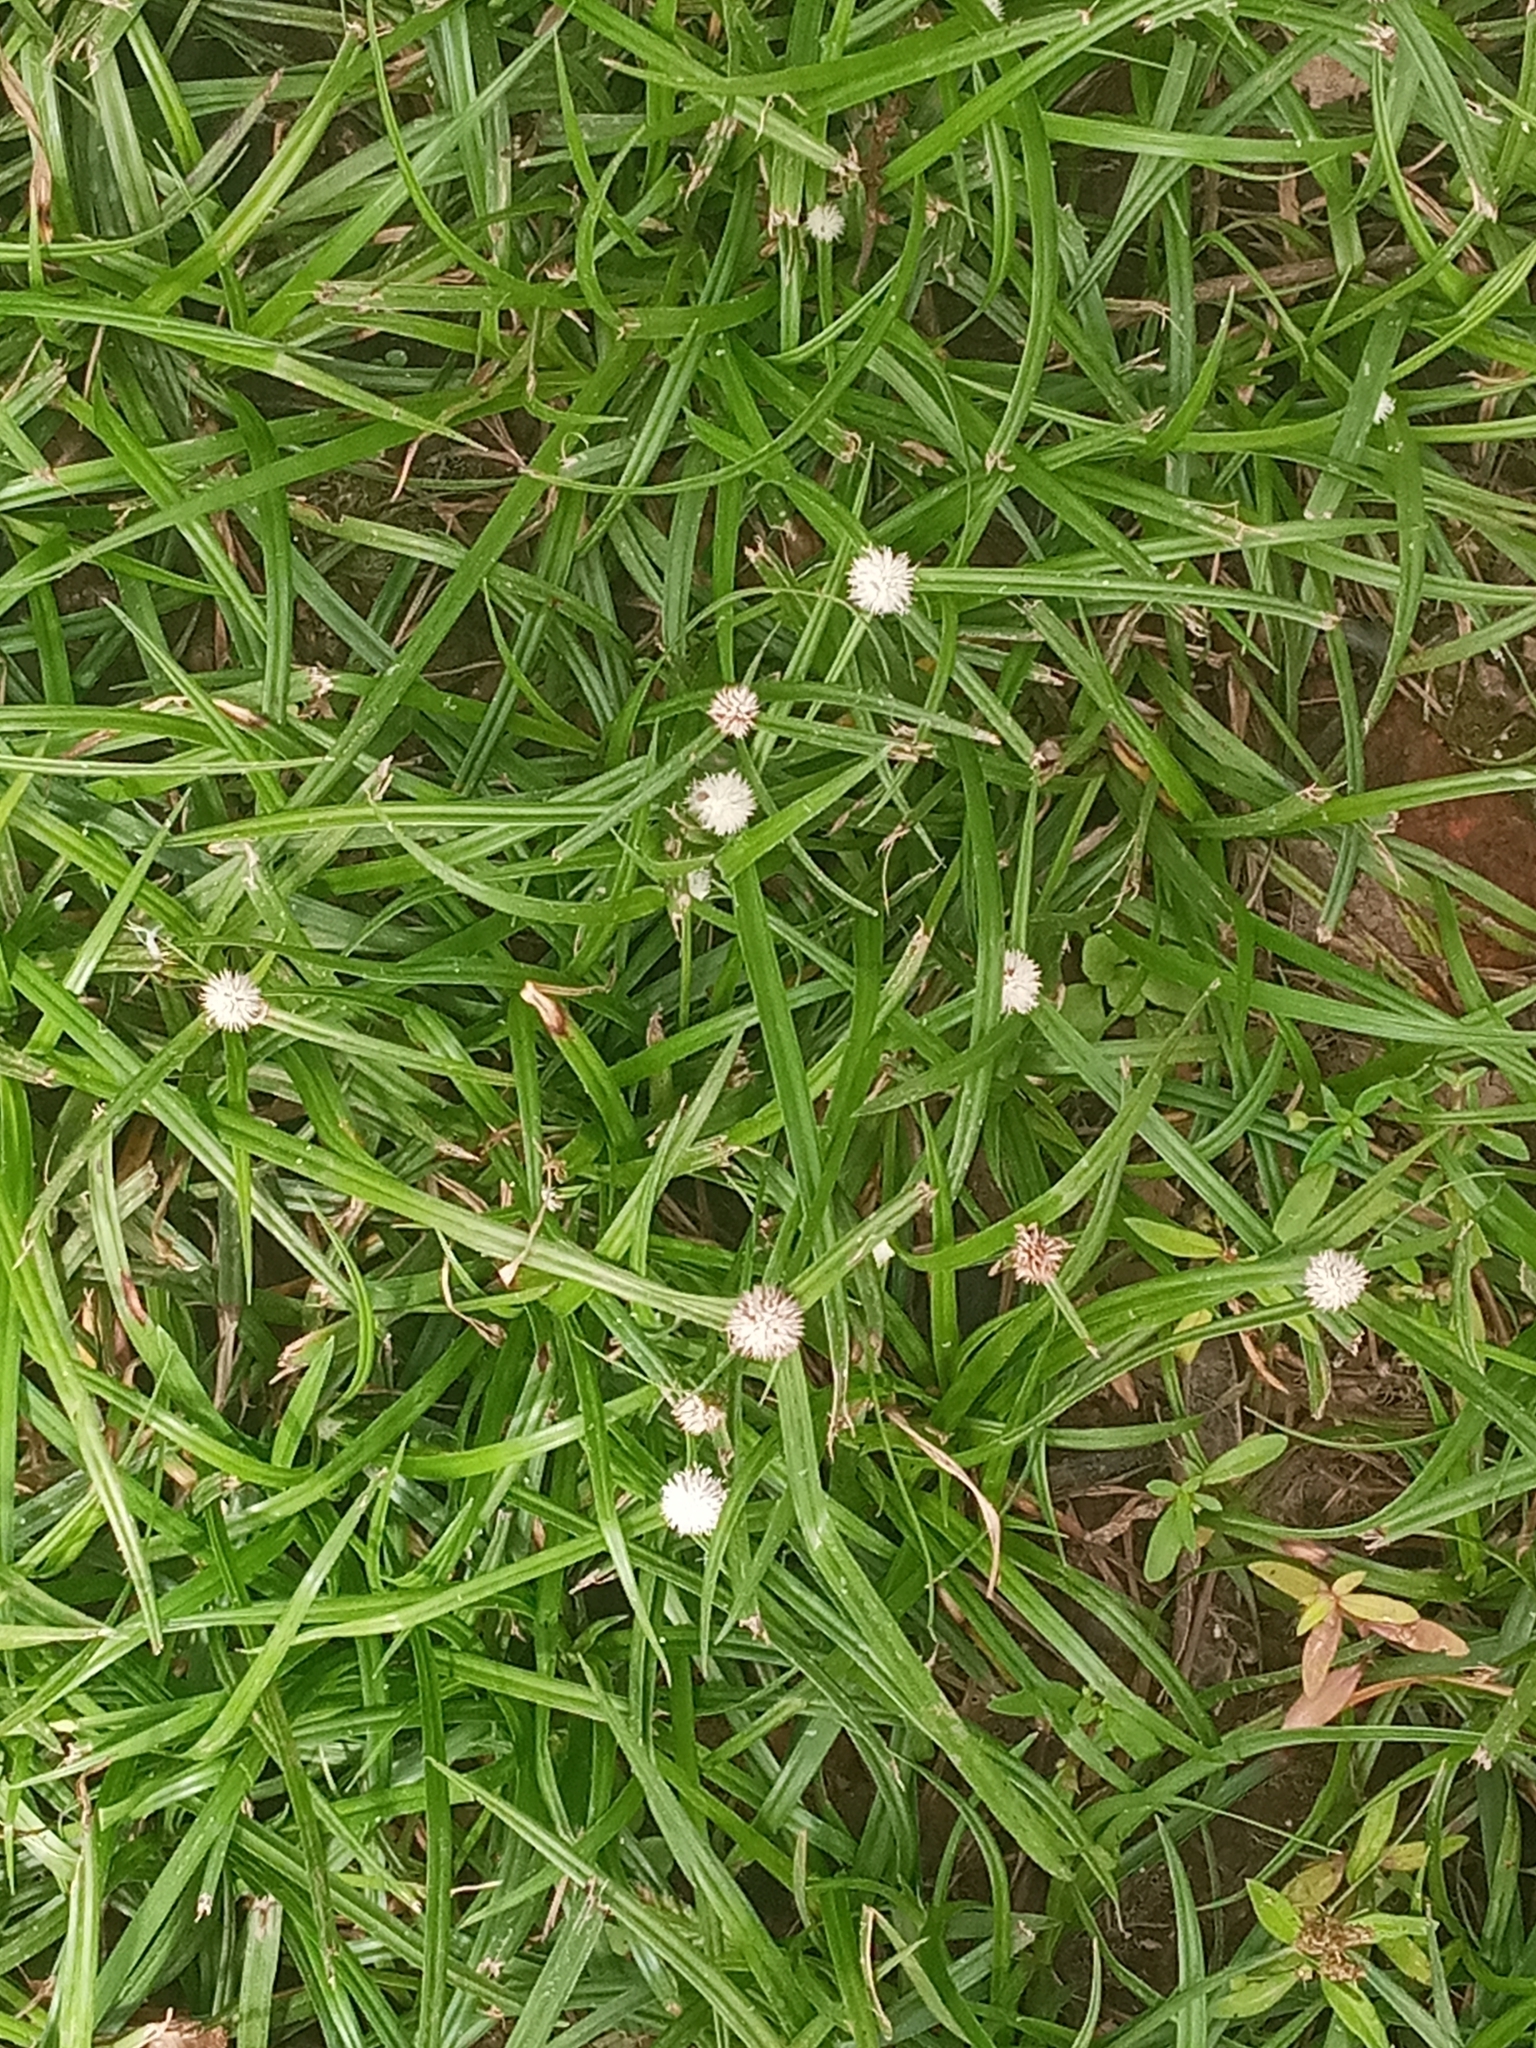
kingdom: Plantae
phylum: Tracheophyta
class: Liliopsida
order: Poales
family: Cyperaceae
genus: Cyperus
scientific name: Cyperus mindorensis
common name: Flatsedge
